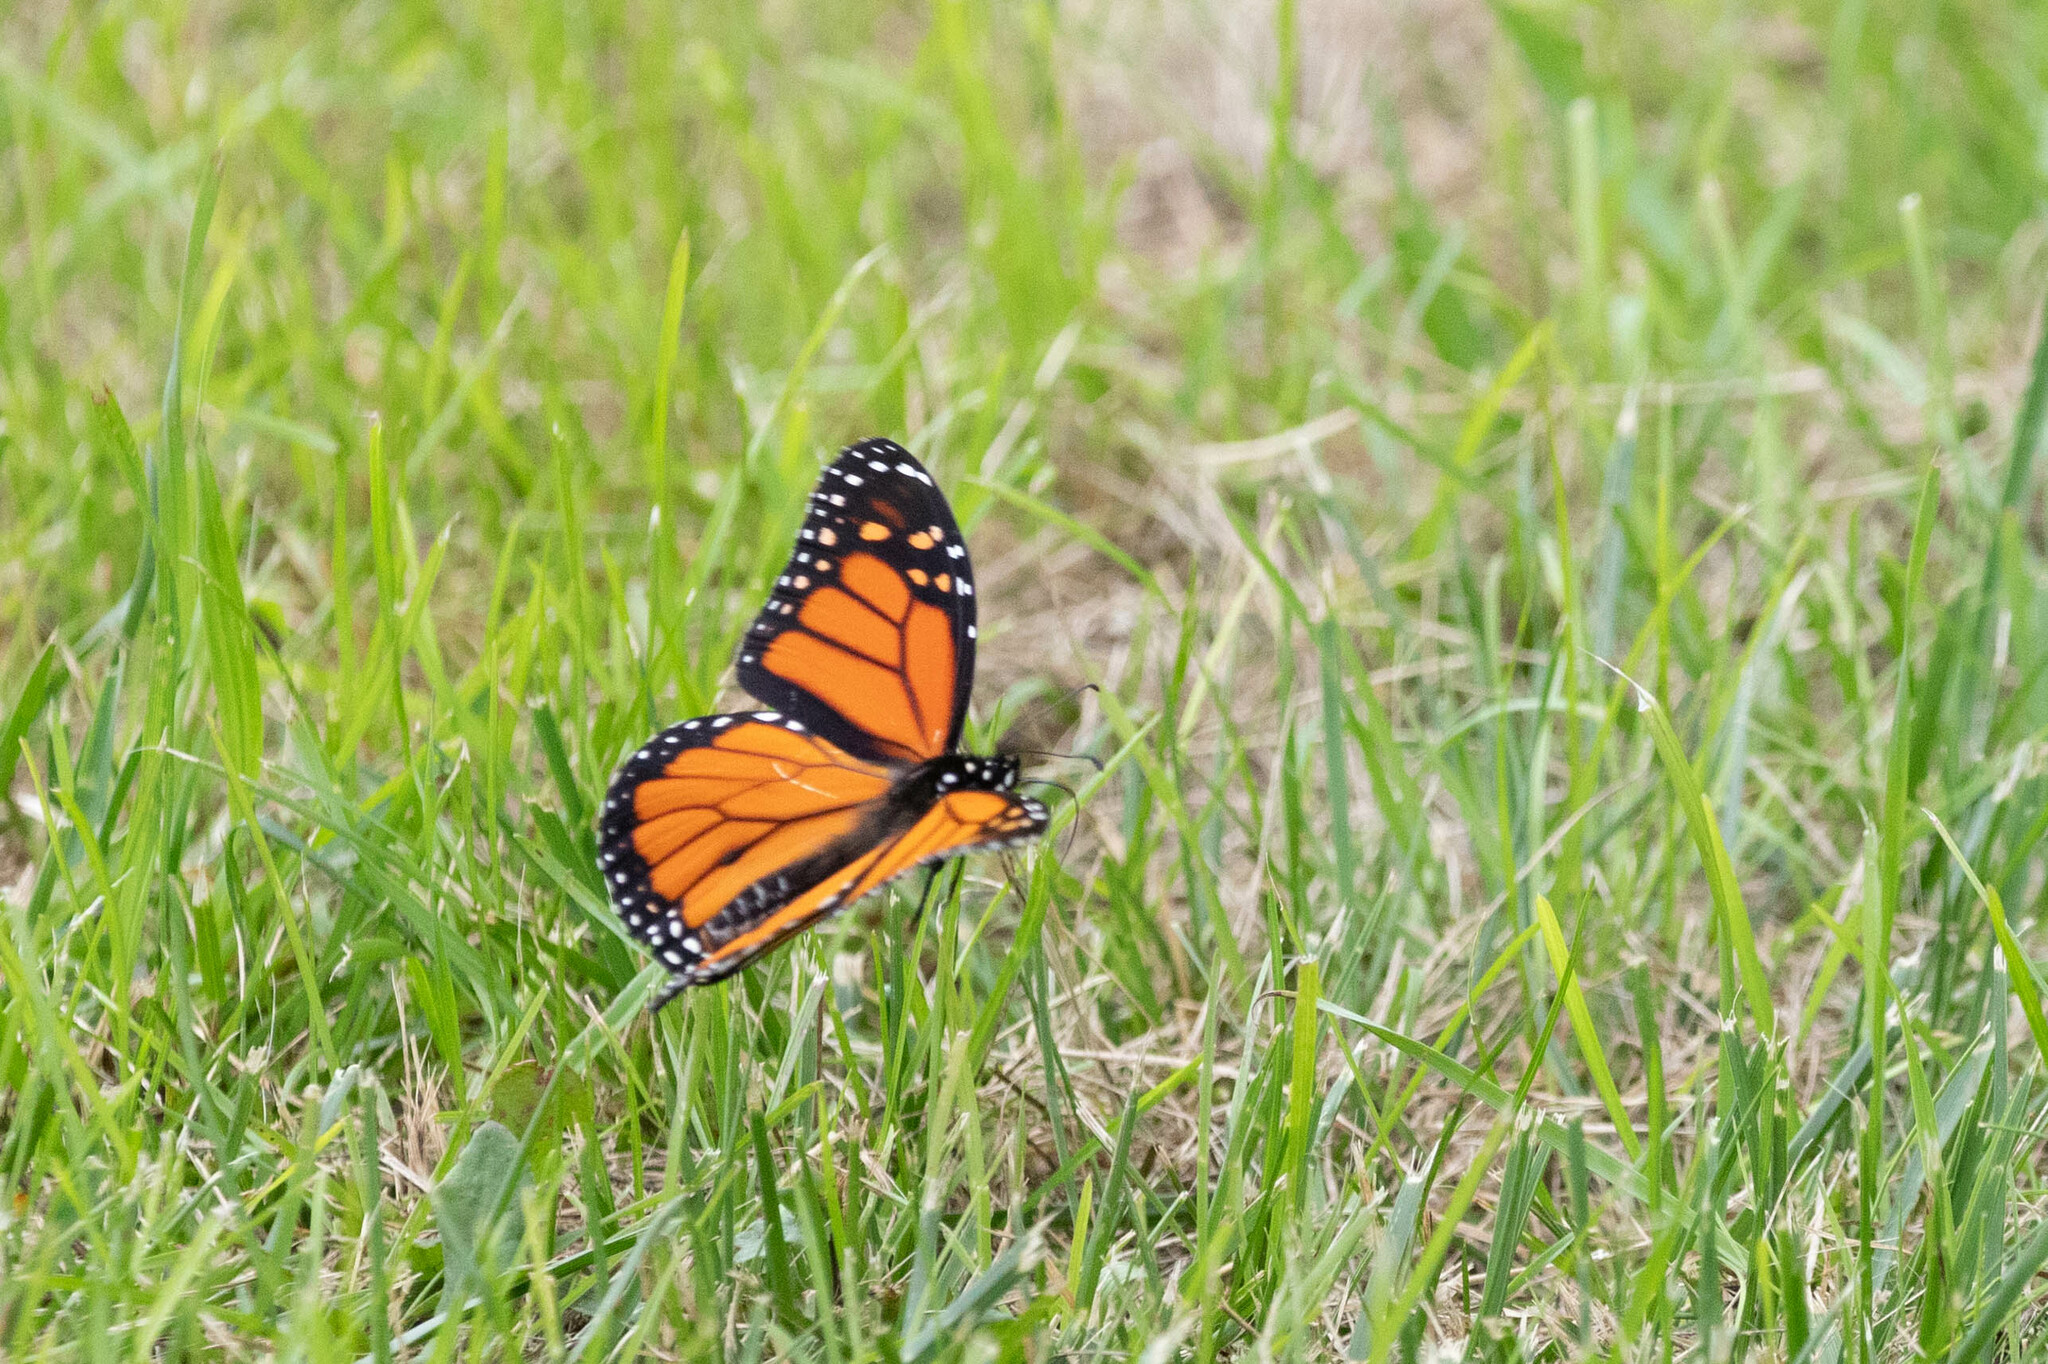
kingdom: Animalia
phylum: Arthropoda
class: Insecta
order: Lepidoptera
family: Nymphalidae
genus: Danaus
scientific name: Danaus plexippus
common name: Monarch
